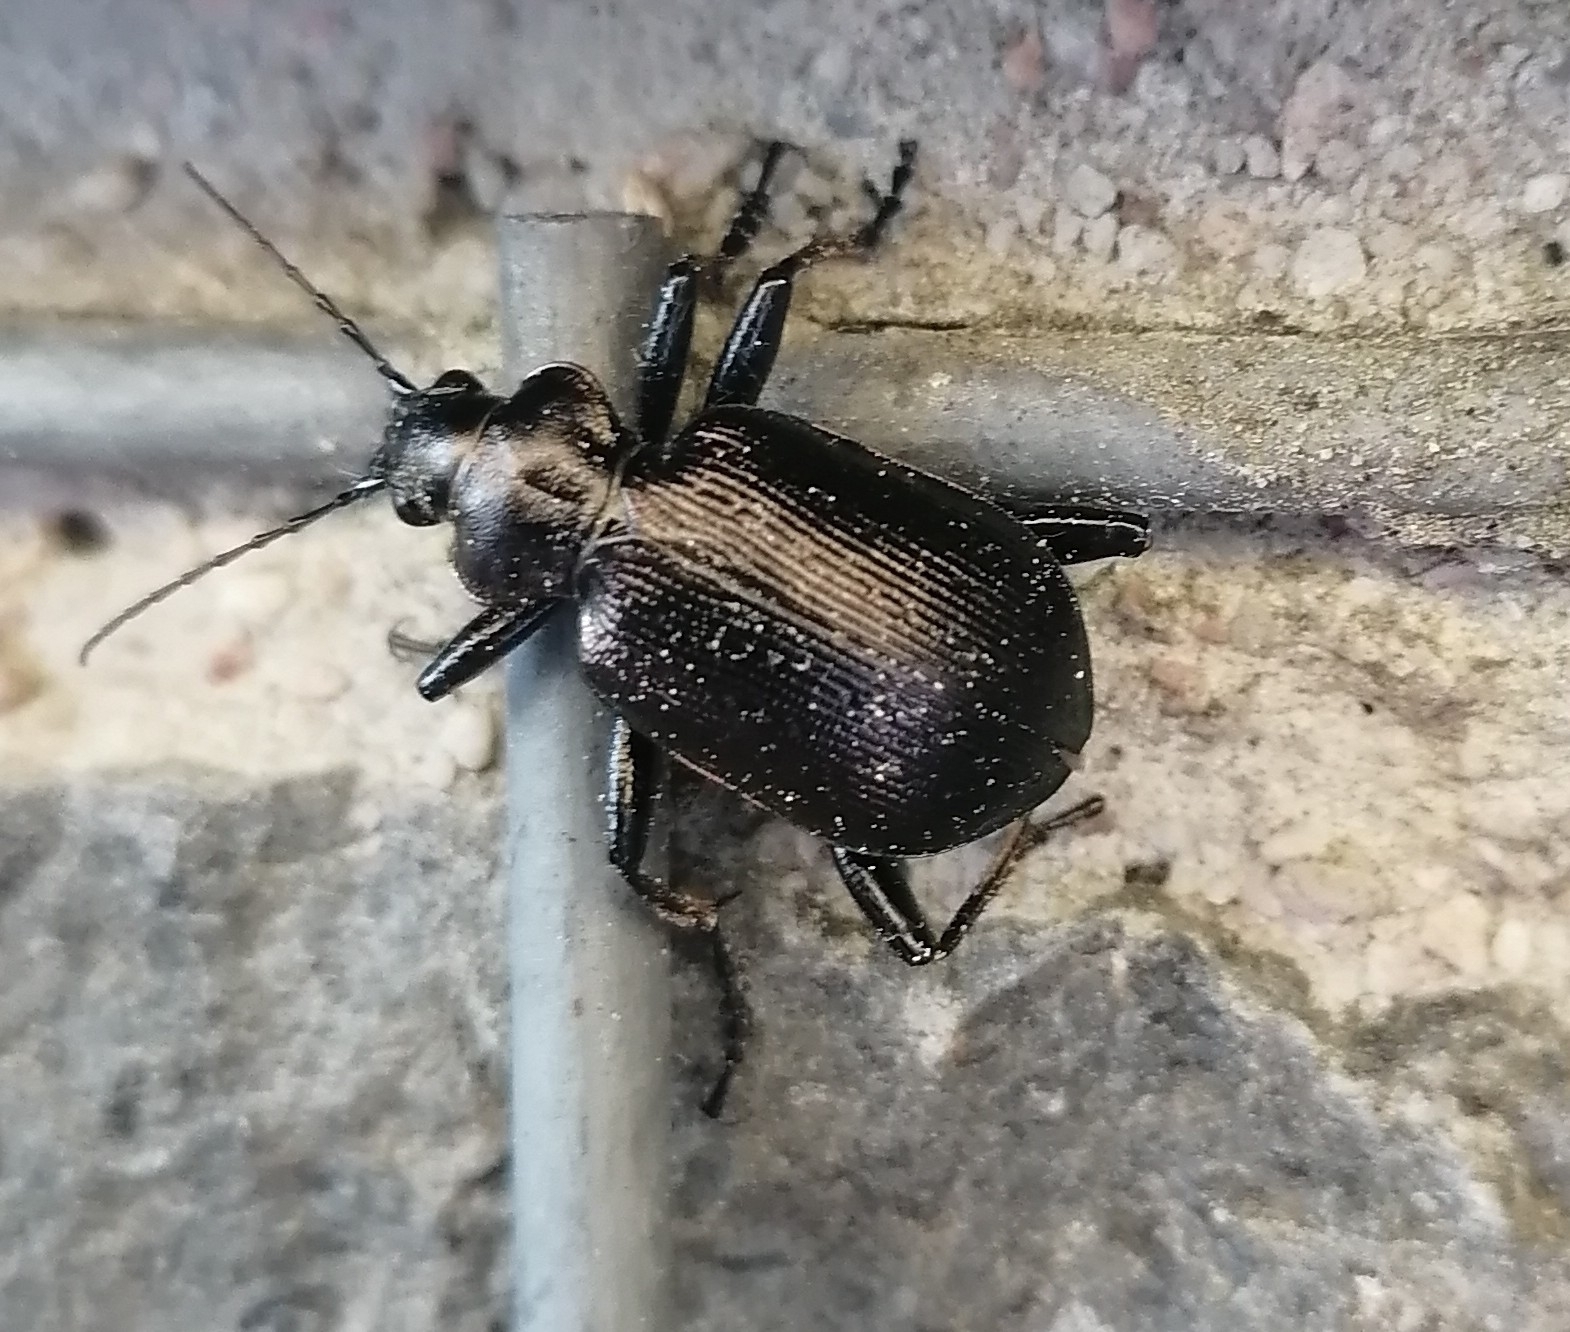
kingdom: Animalia
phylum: Arthropoda
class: Insecta
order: Coleoptera
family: Carabidae
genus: Calosoma
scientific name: Calosoma inquisitor
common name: Caterpillar-hunter
